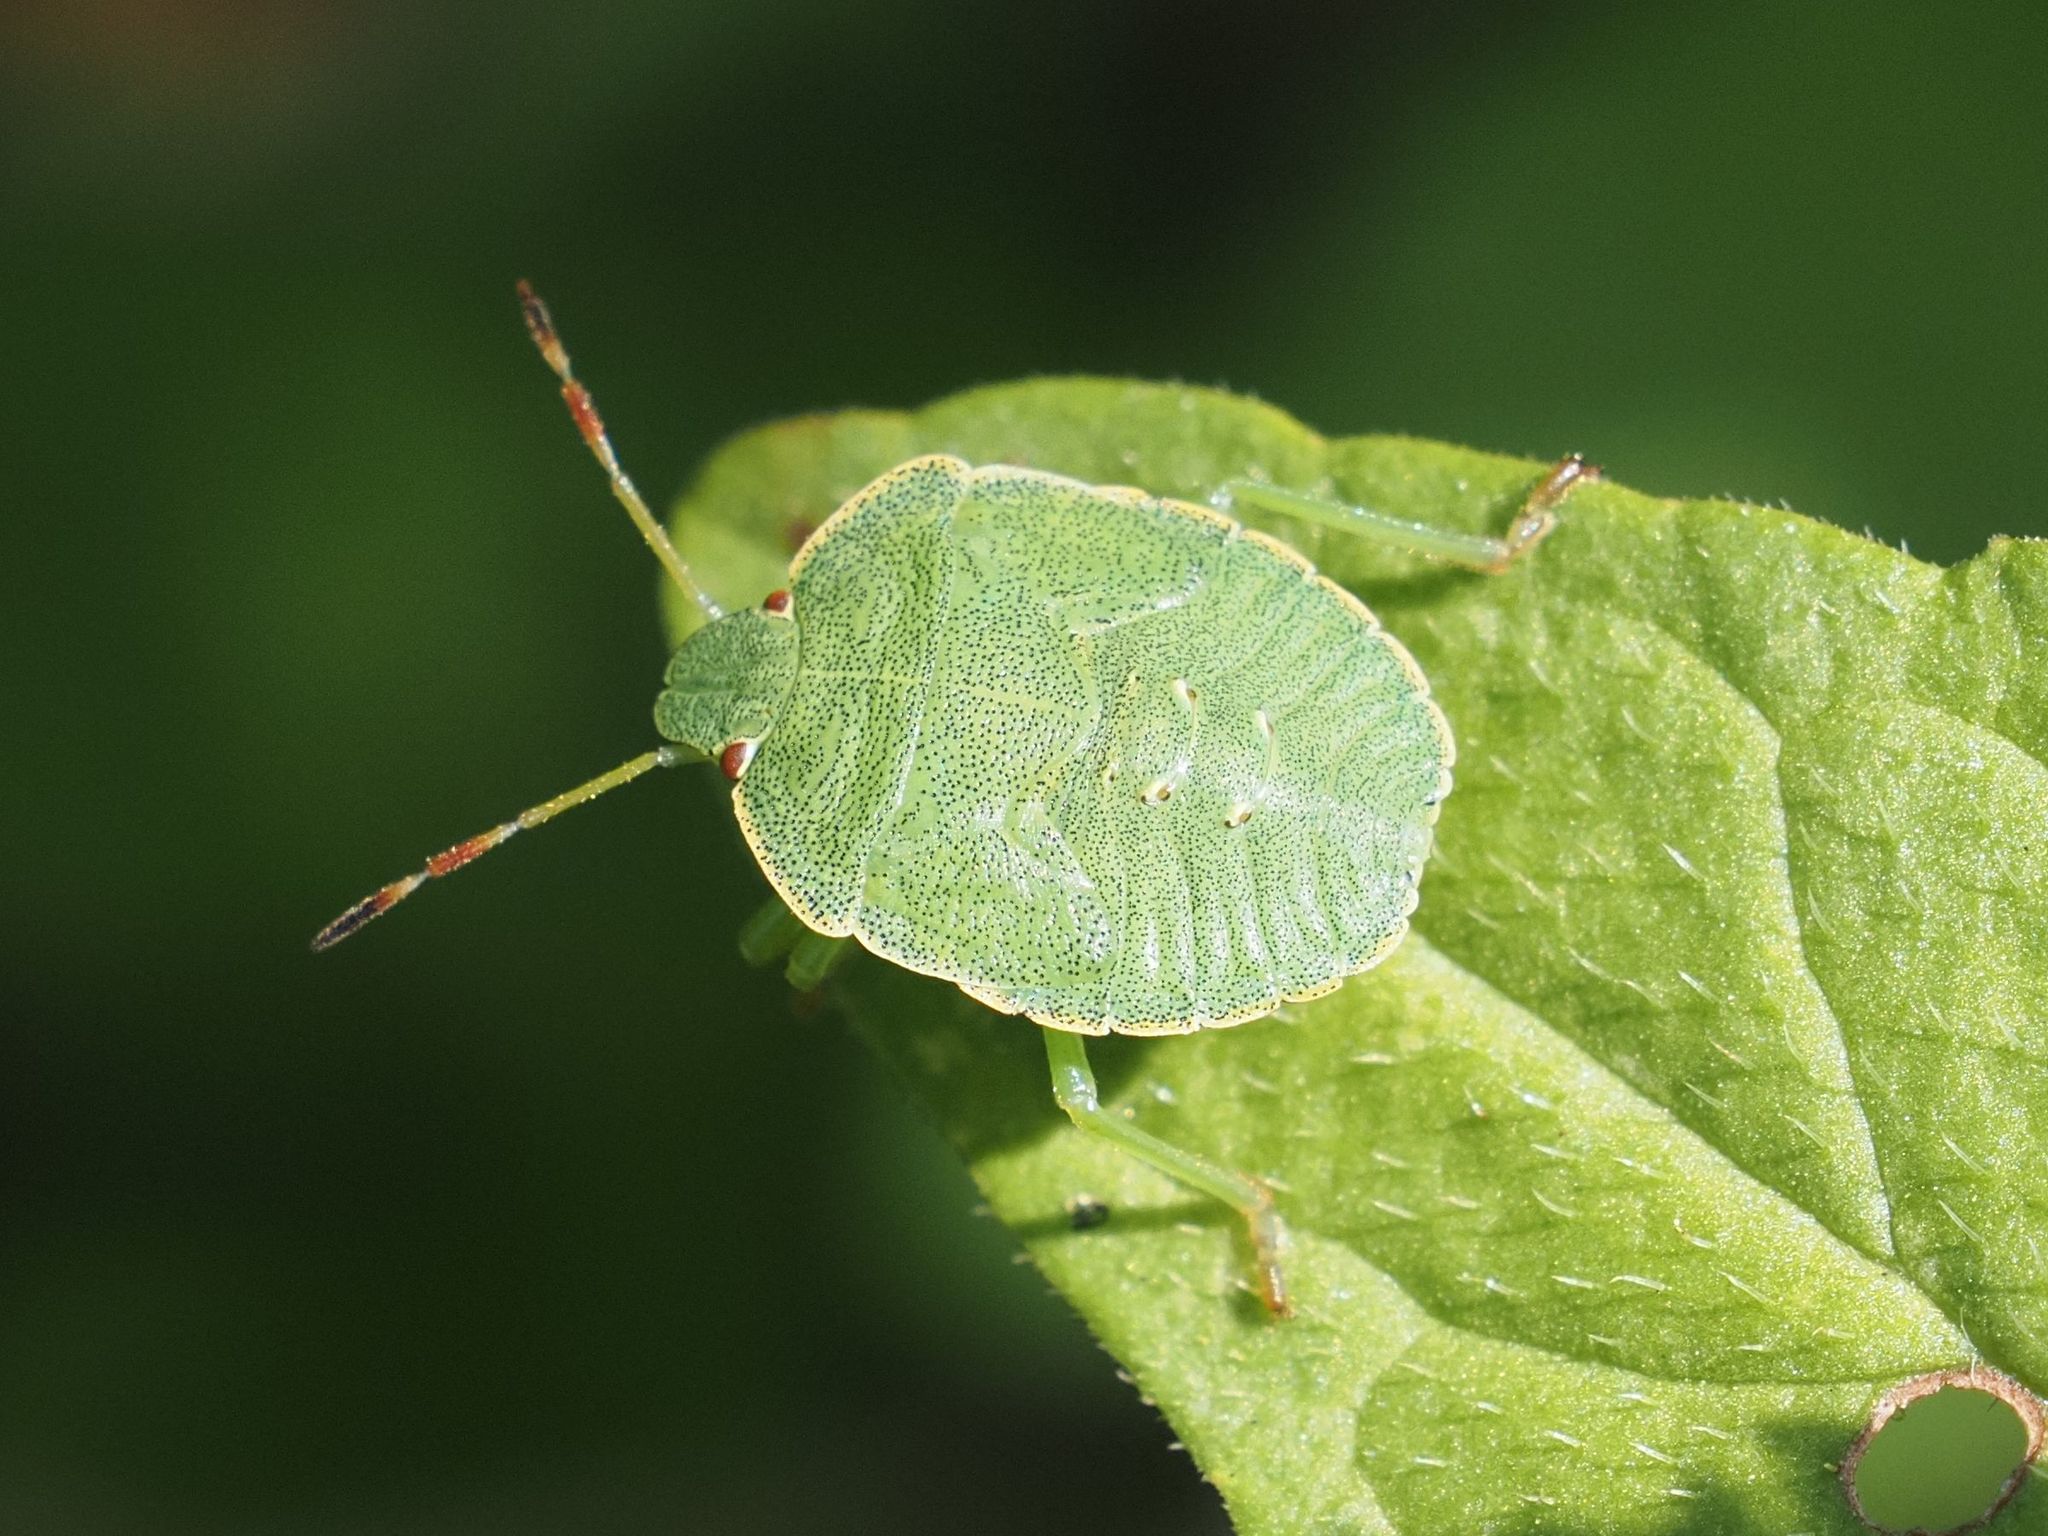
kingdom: Animalia
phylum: Arthropoda
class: Insecta
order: Hemiptera
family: Pentatomidae
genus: Palomena
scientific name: Palomena prasina
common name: Green shieldbug
